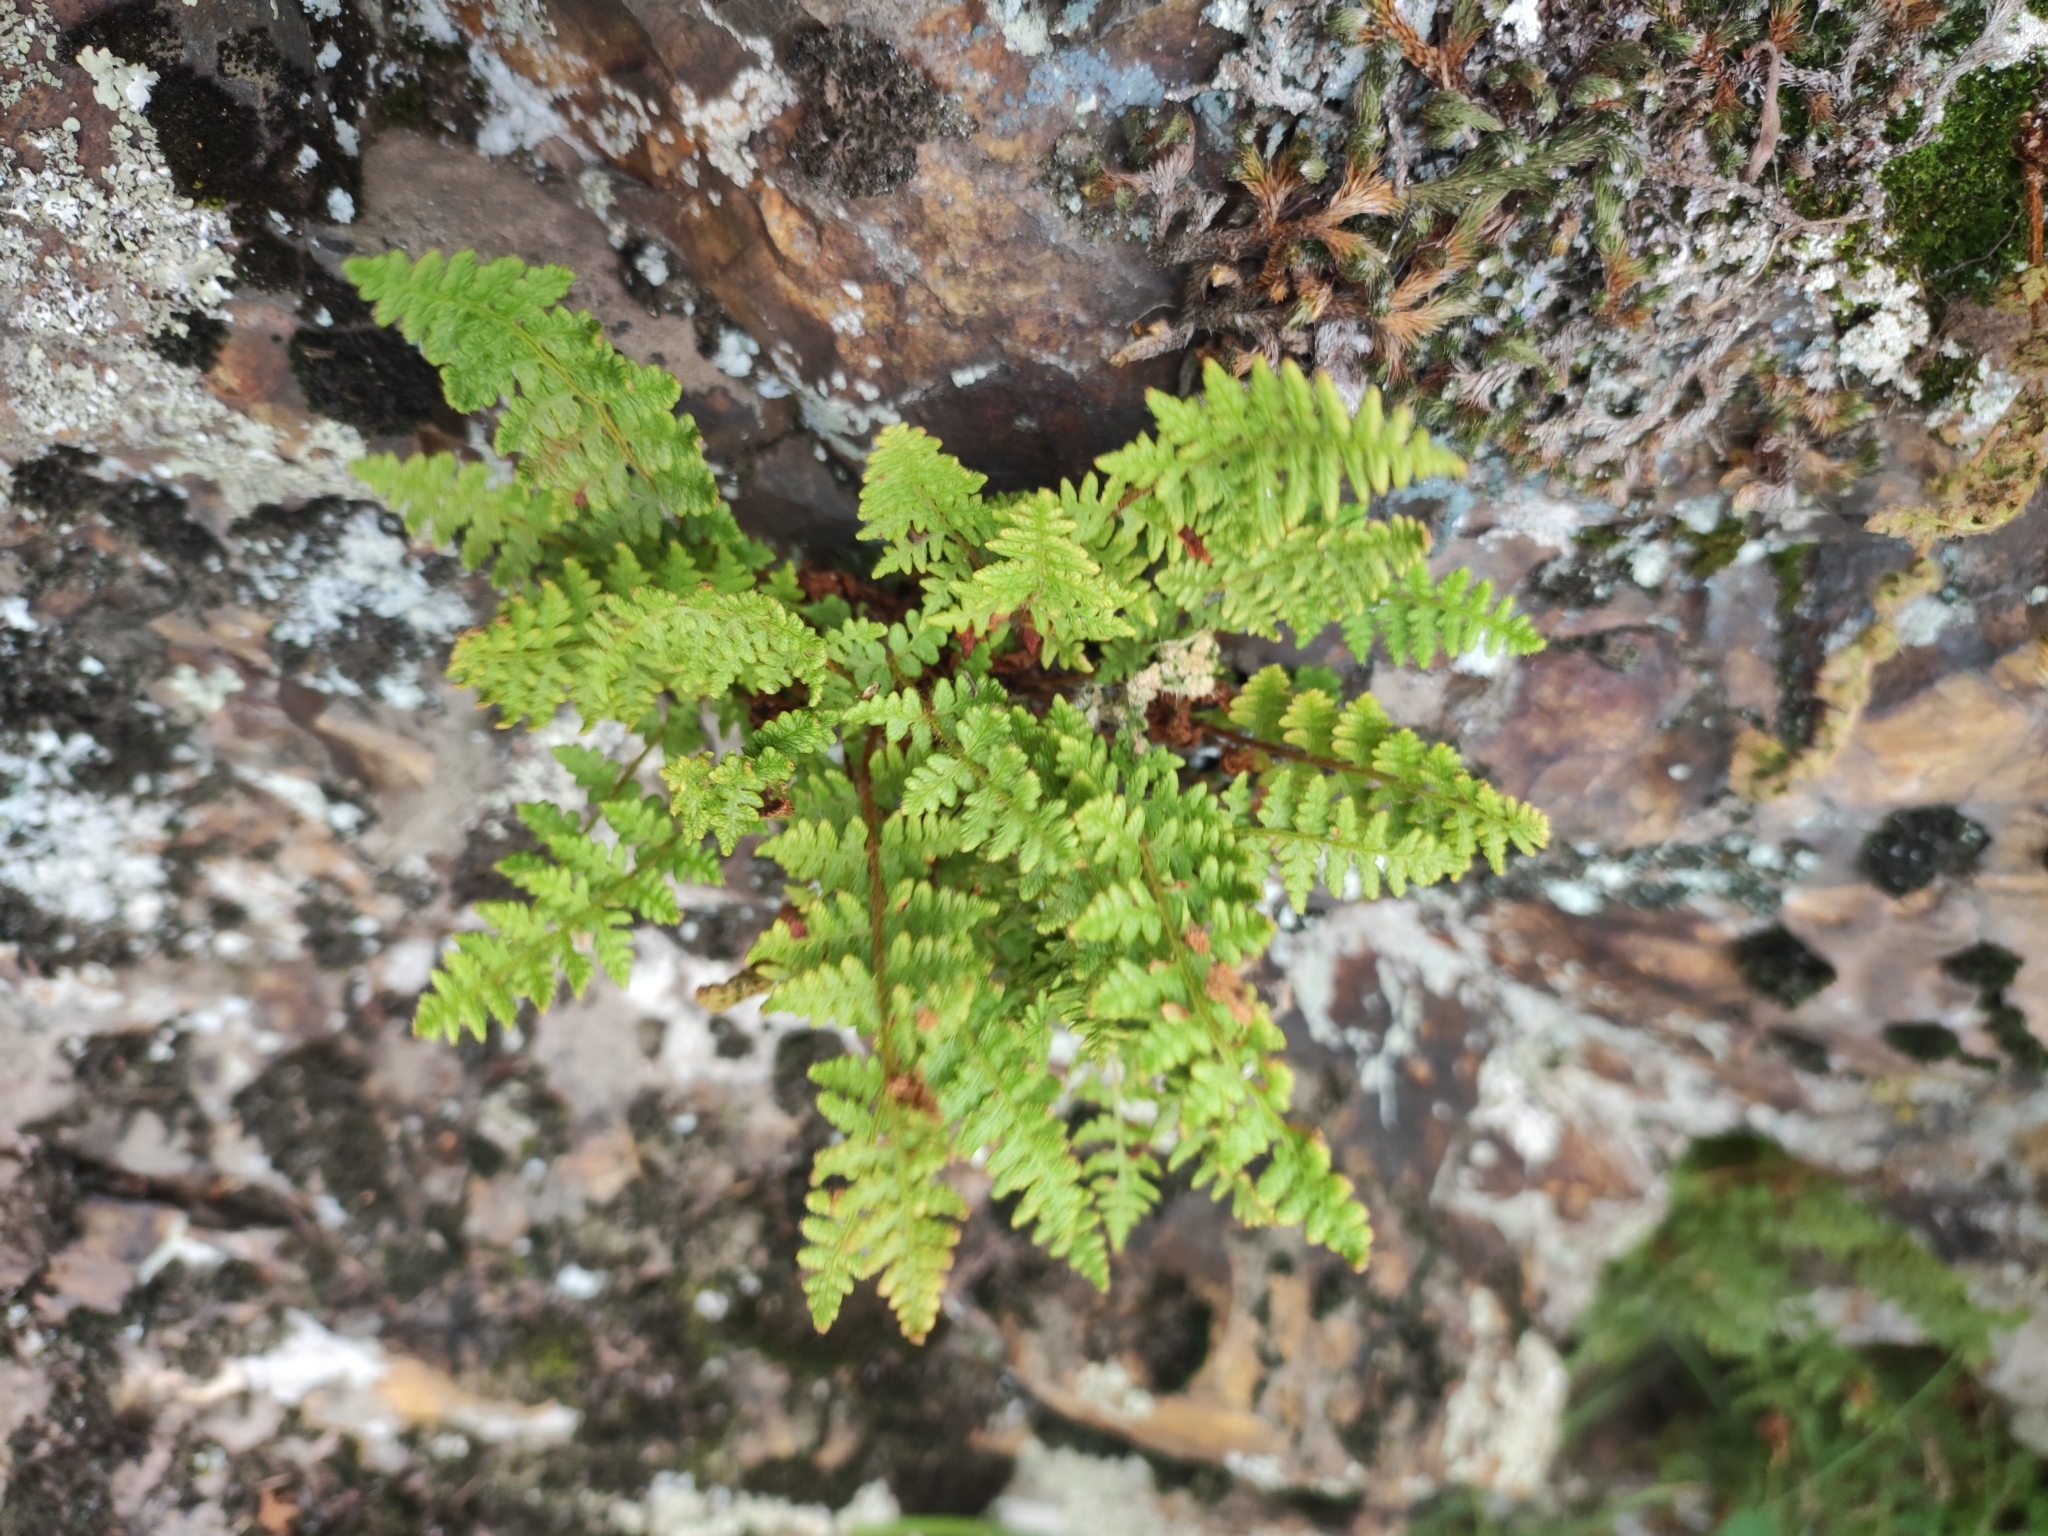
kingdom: Plantae
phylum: Tracheophyta
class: Polypodiopsida
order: Polypodiales
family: Woodsiaceae
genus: Woodsia
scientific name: Woodsia ilvensis
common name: Fragrant woodsia
